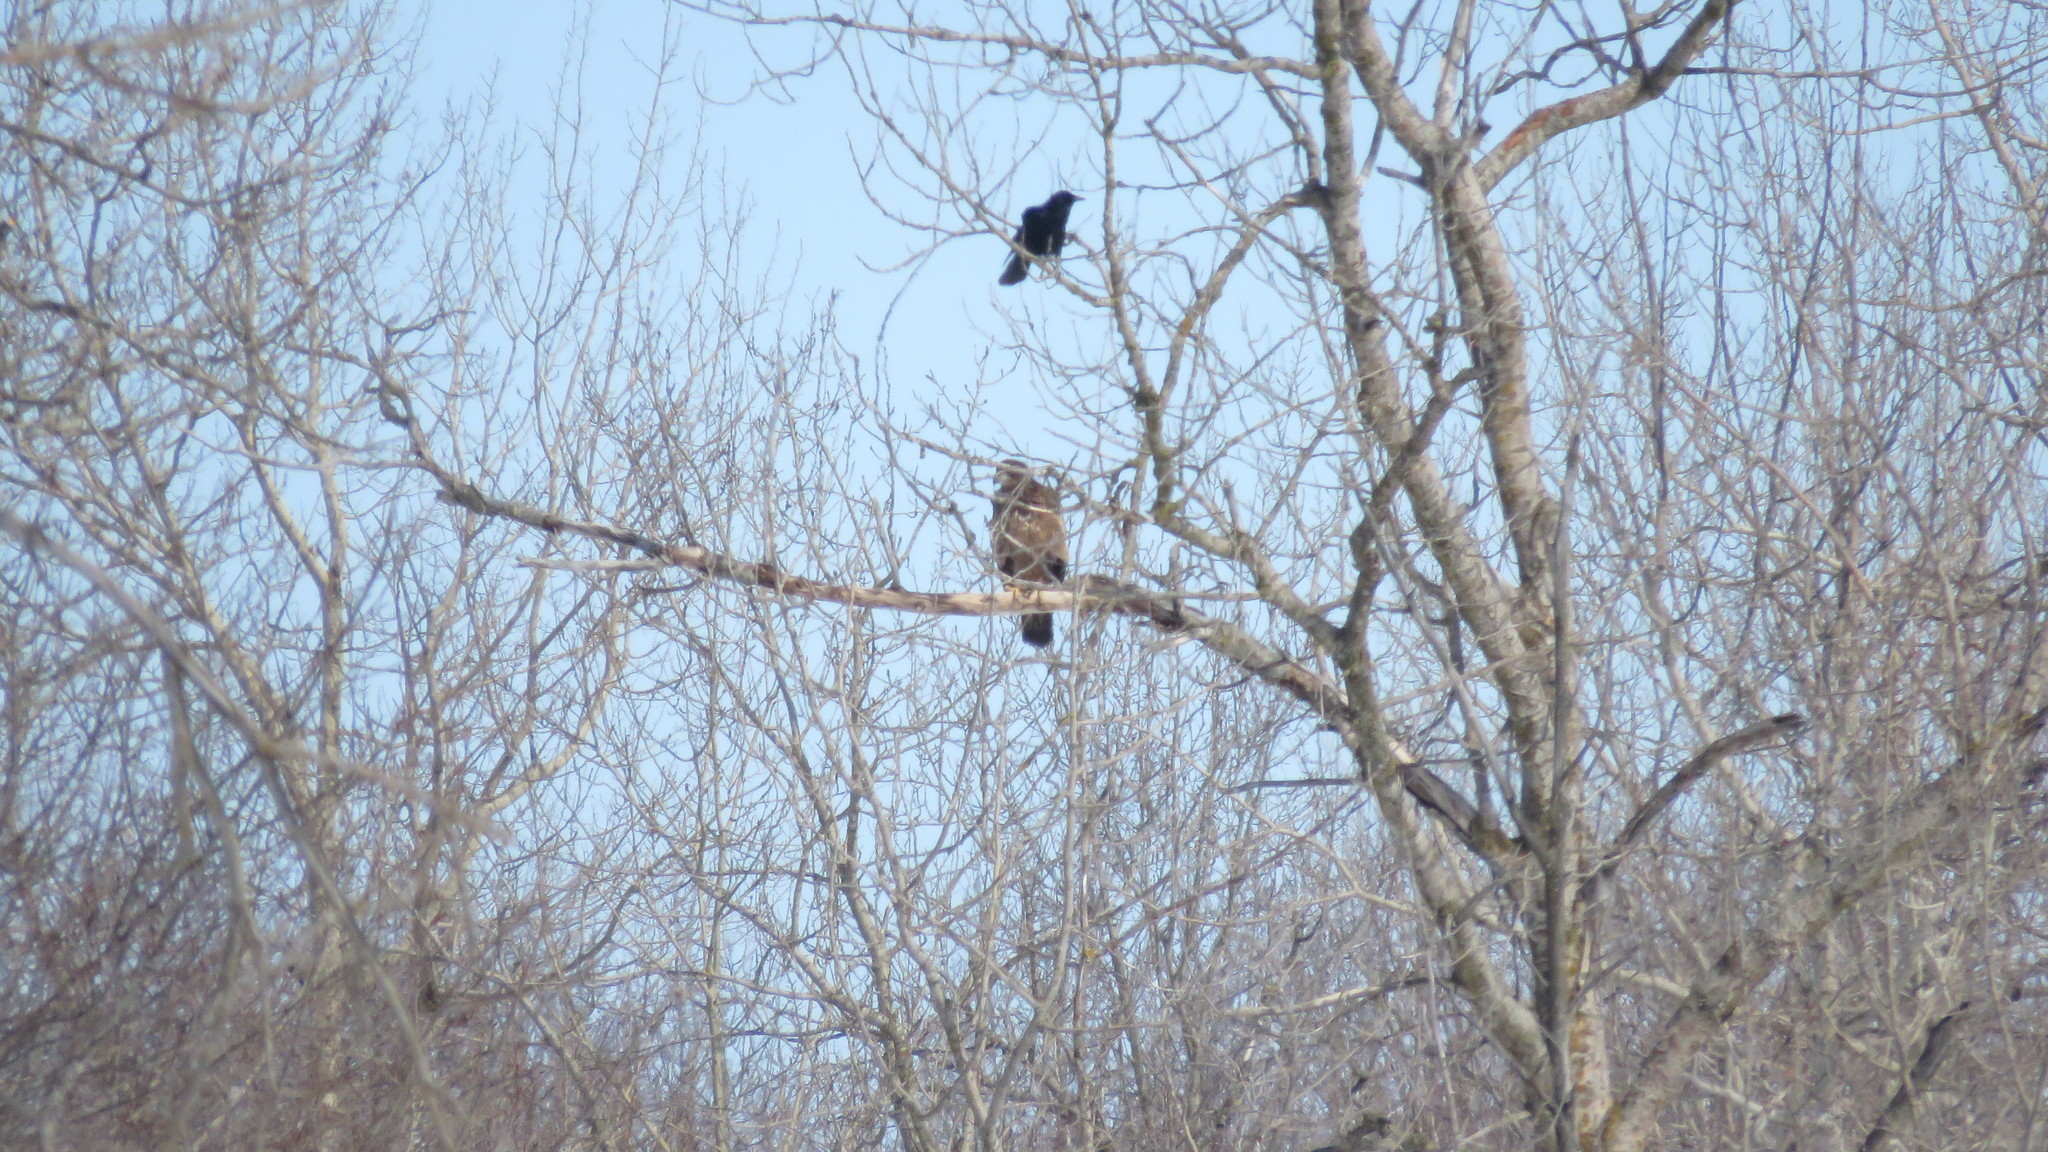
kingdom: Animalia
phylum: Chordata
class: Aves
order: Accipitriformes
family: Accipitridae
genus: Haliaeetus
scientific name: Haliaeetus leucocephalus
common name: Bald eagle
